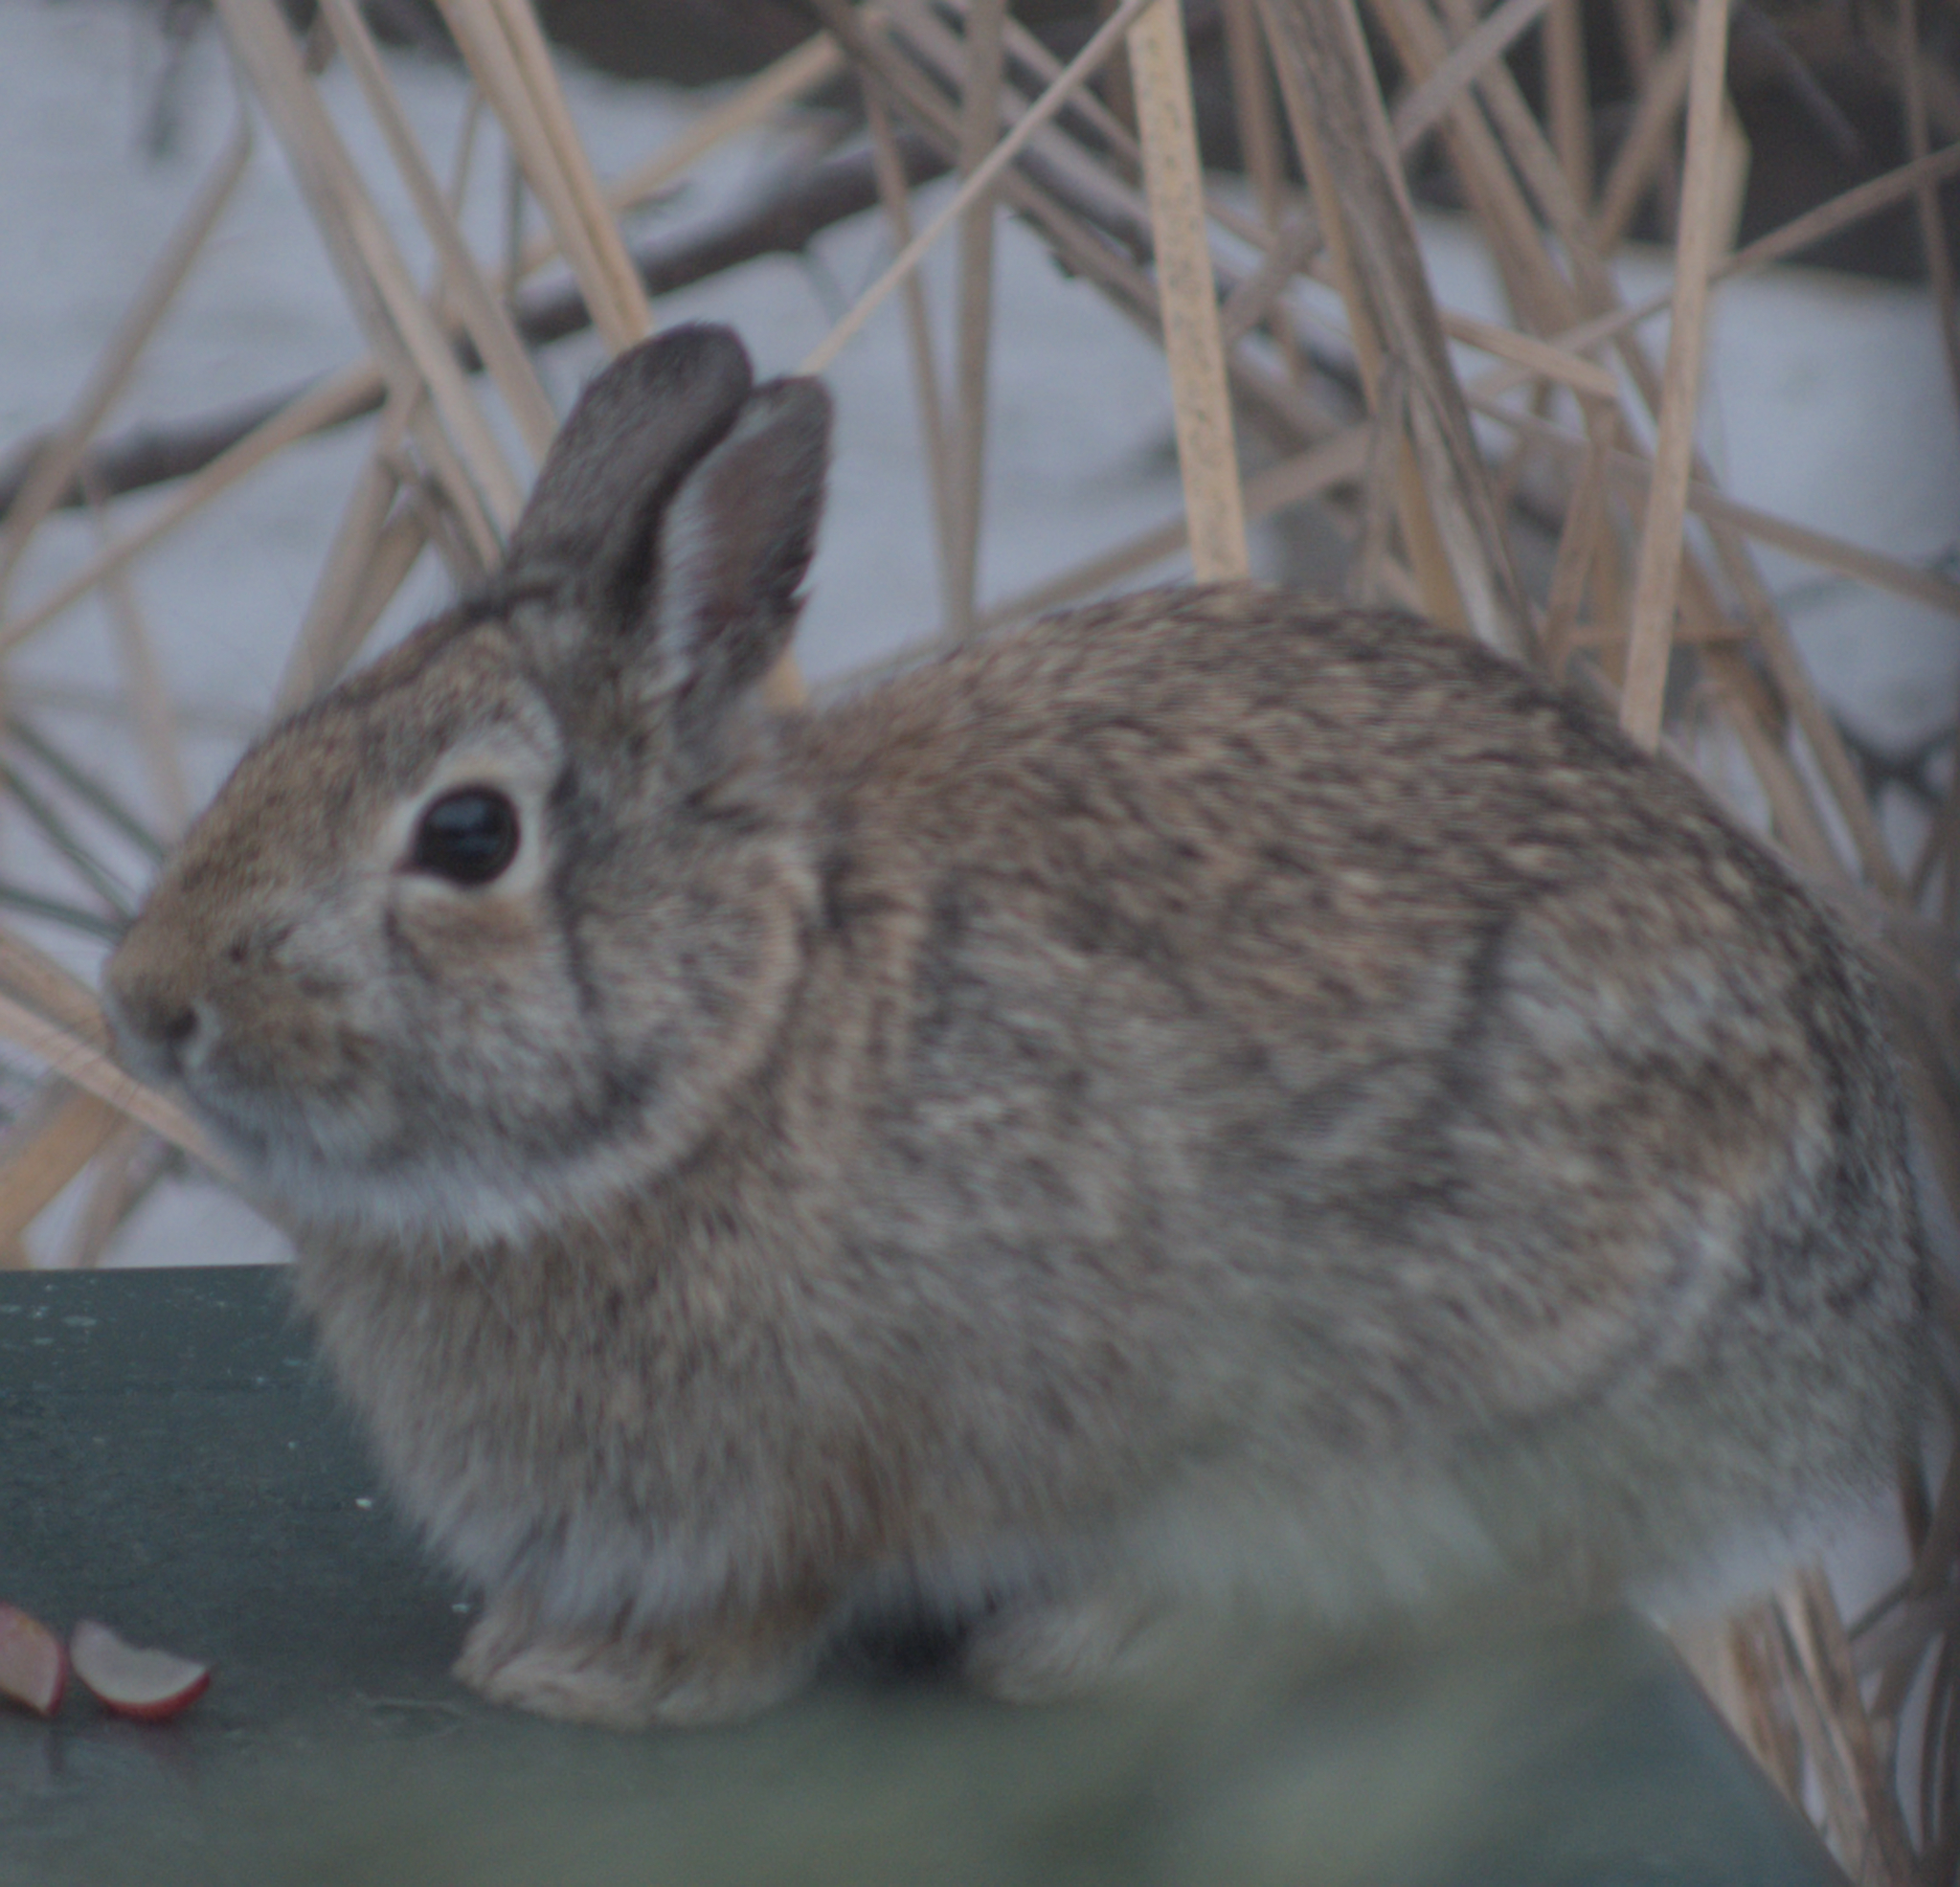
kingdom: Animalia
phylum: Chordata
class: Mammalia
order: Lagomorpha
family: Leporidae
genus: Sylvilagus
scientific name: Sylvilagus floridanus
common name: Eastern cottontail
